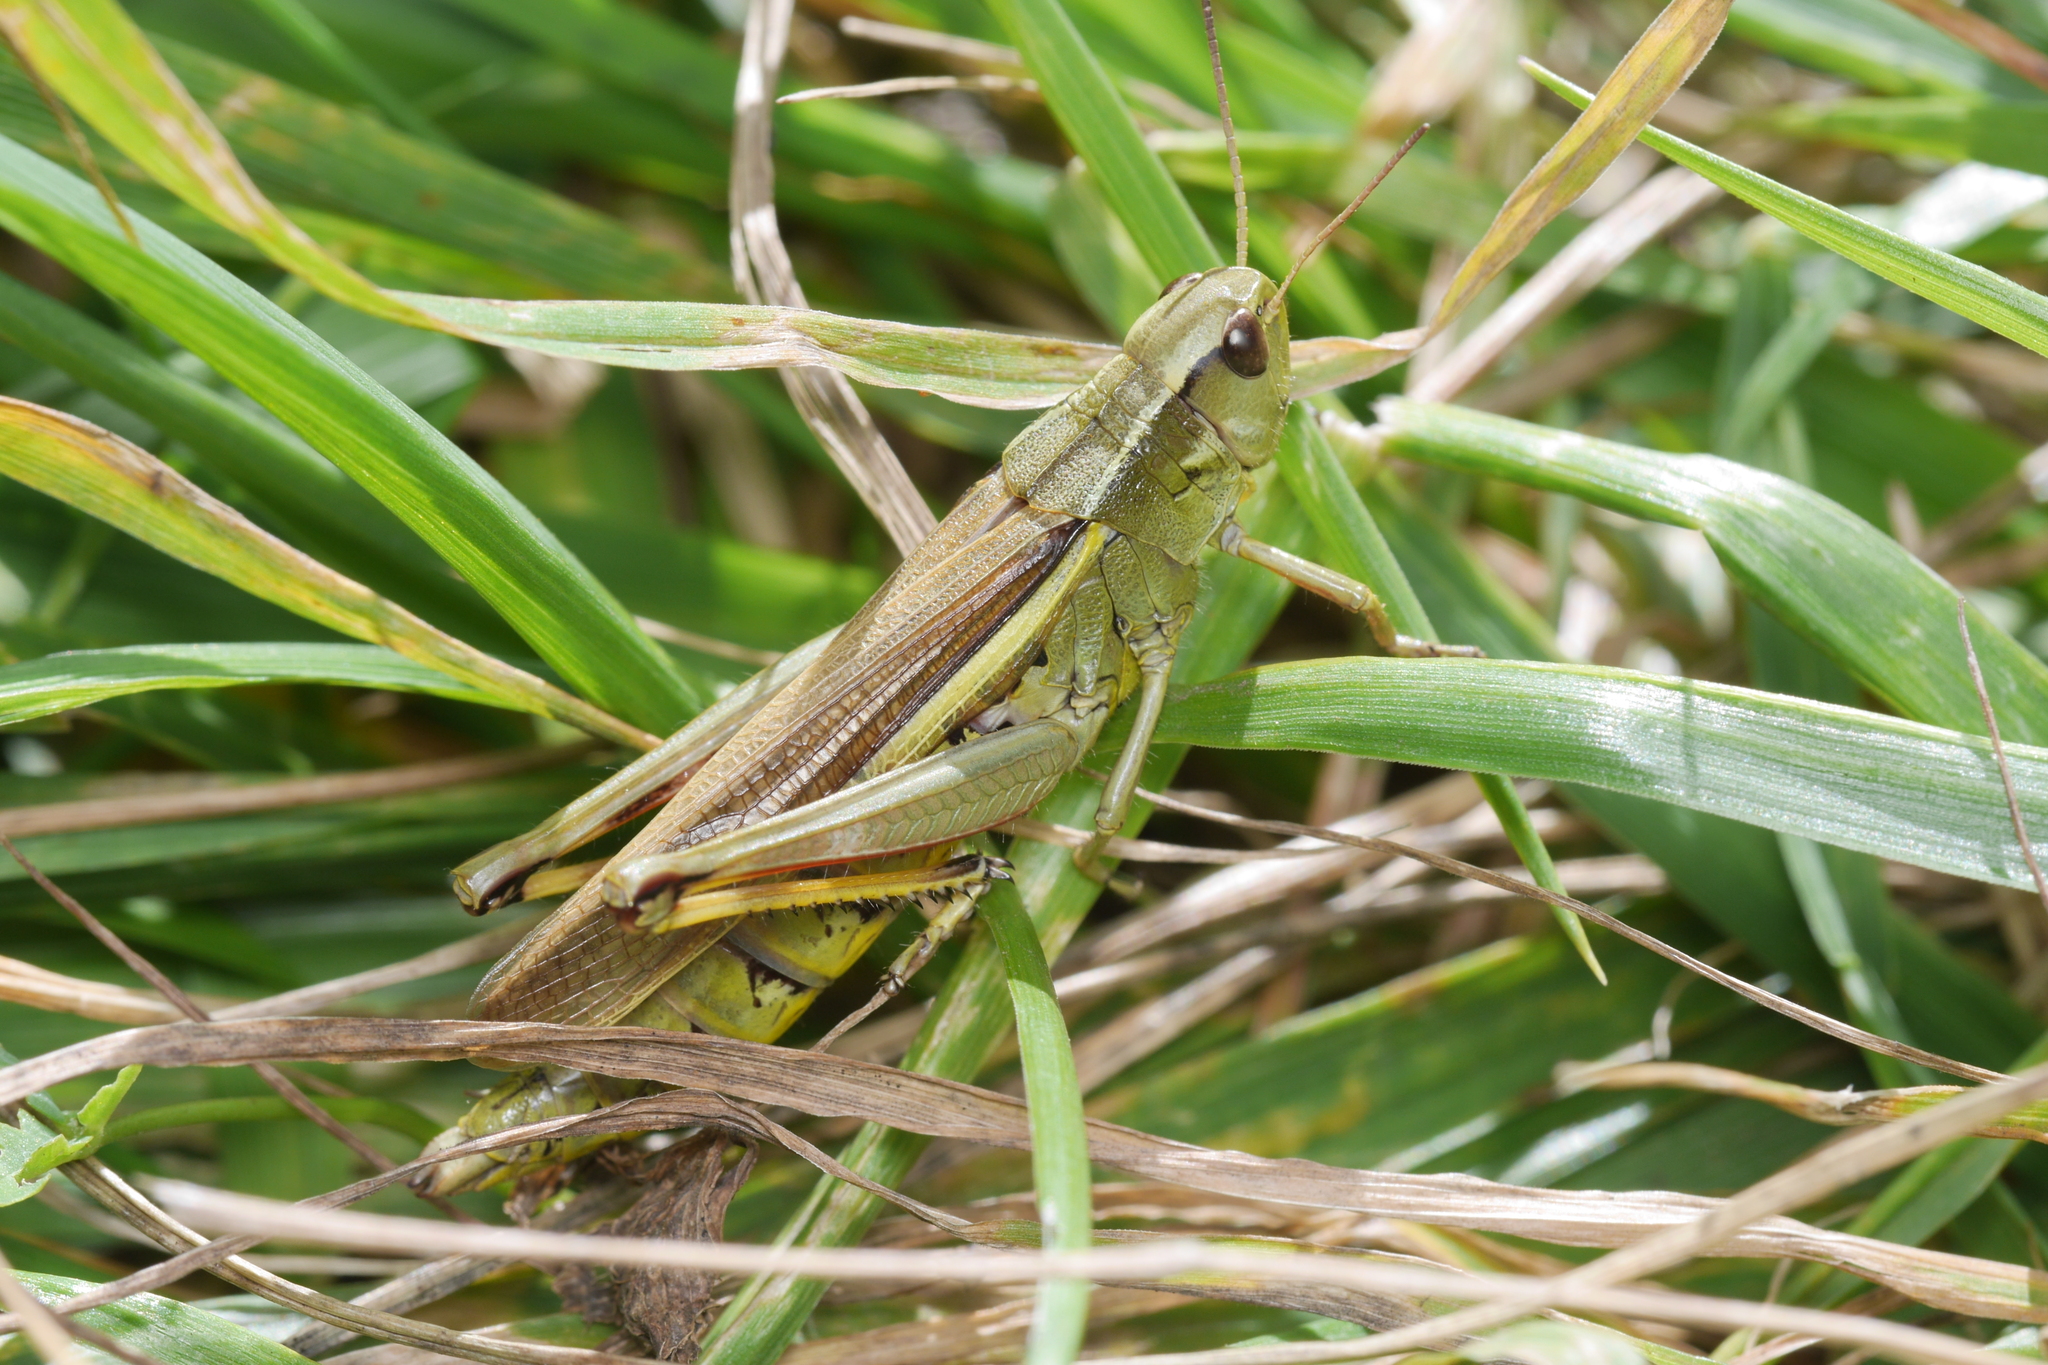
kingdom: Animalia
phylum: Arthropoda
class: Insecta
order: Orthoptera
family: Acrididae
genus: Stethophyma
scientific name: Stethophyma grossum
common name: Large marsh grasshopper
